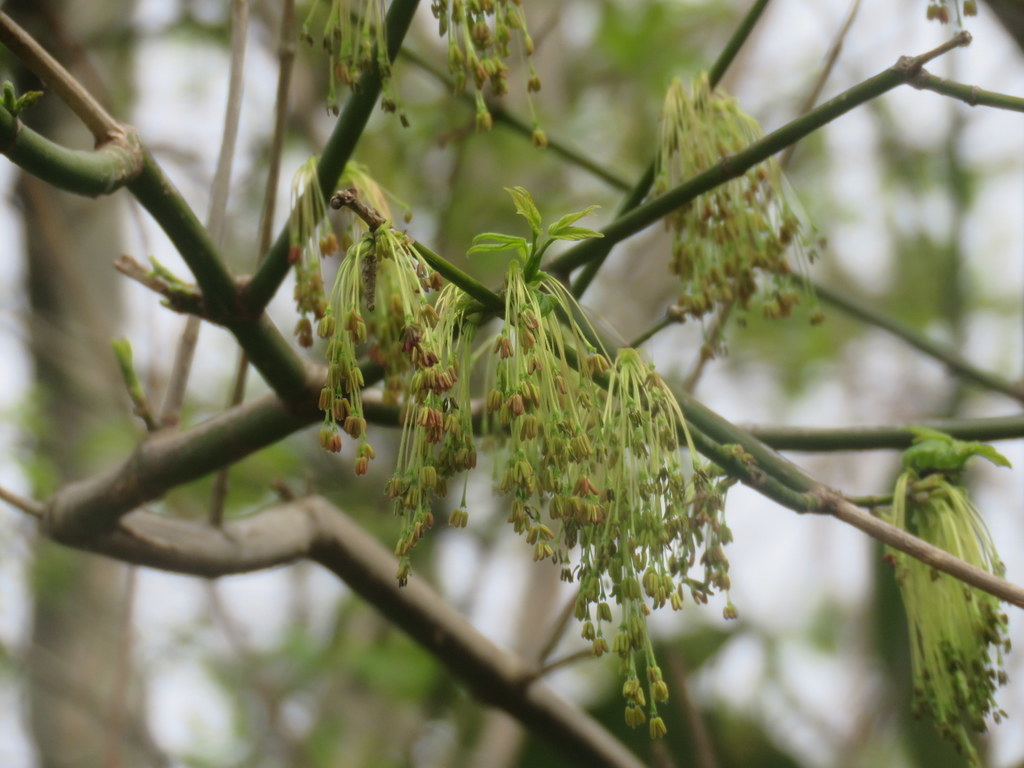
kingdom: Plantae
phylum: Tracheophyta
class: Magnoliopsida
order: Sapindales
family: Sapindaceae
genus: Acer
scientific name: Acer negundo
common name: Ashleaf maple
